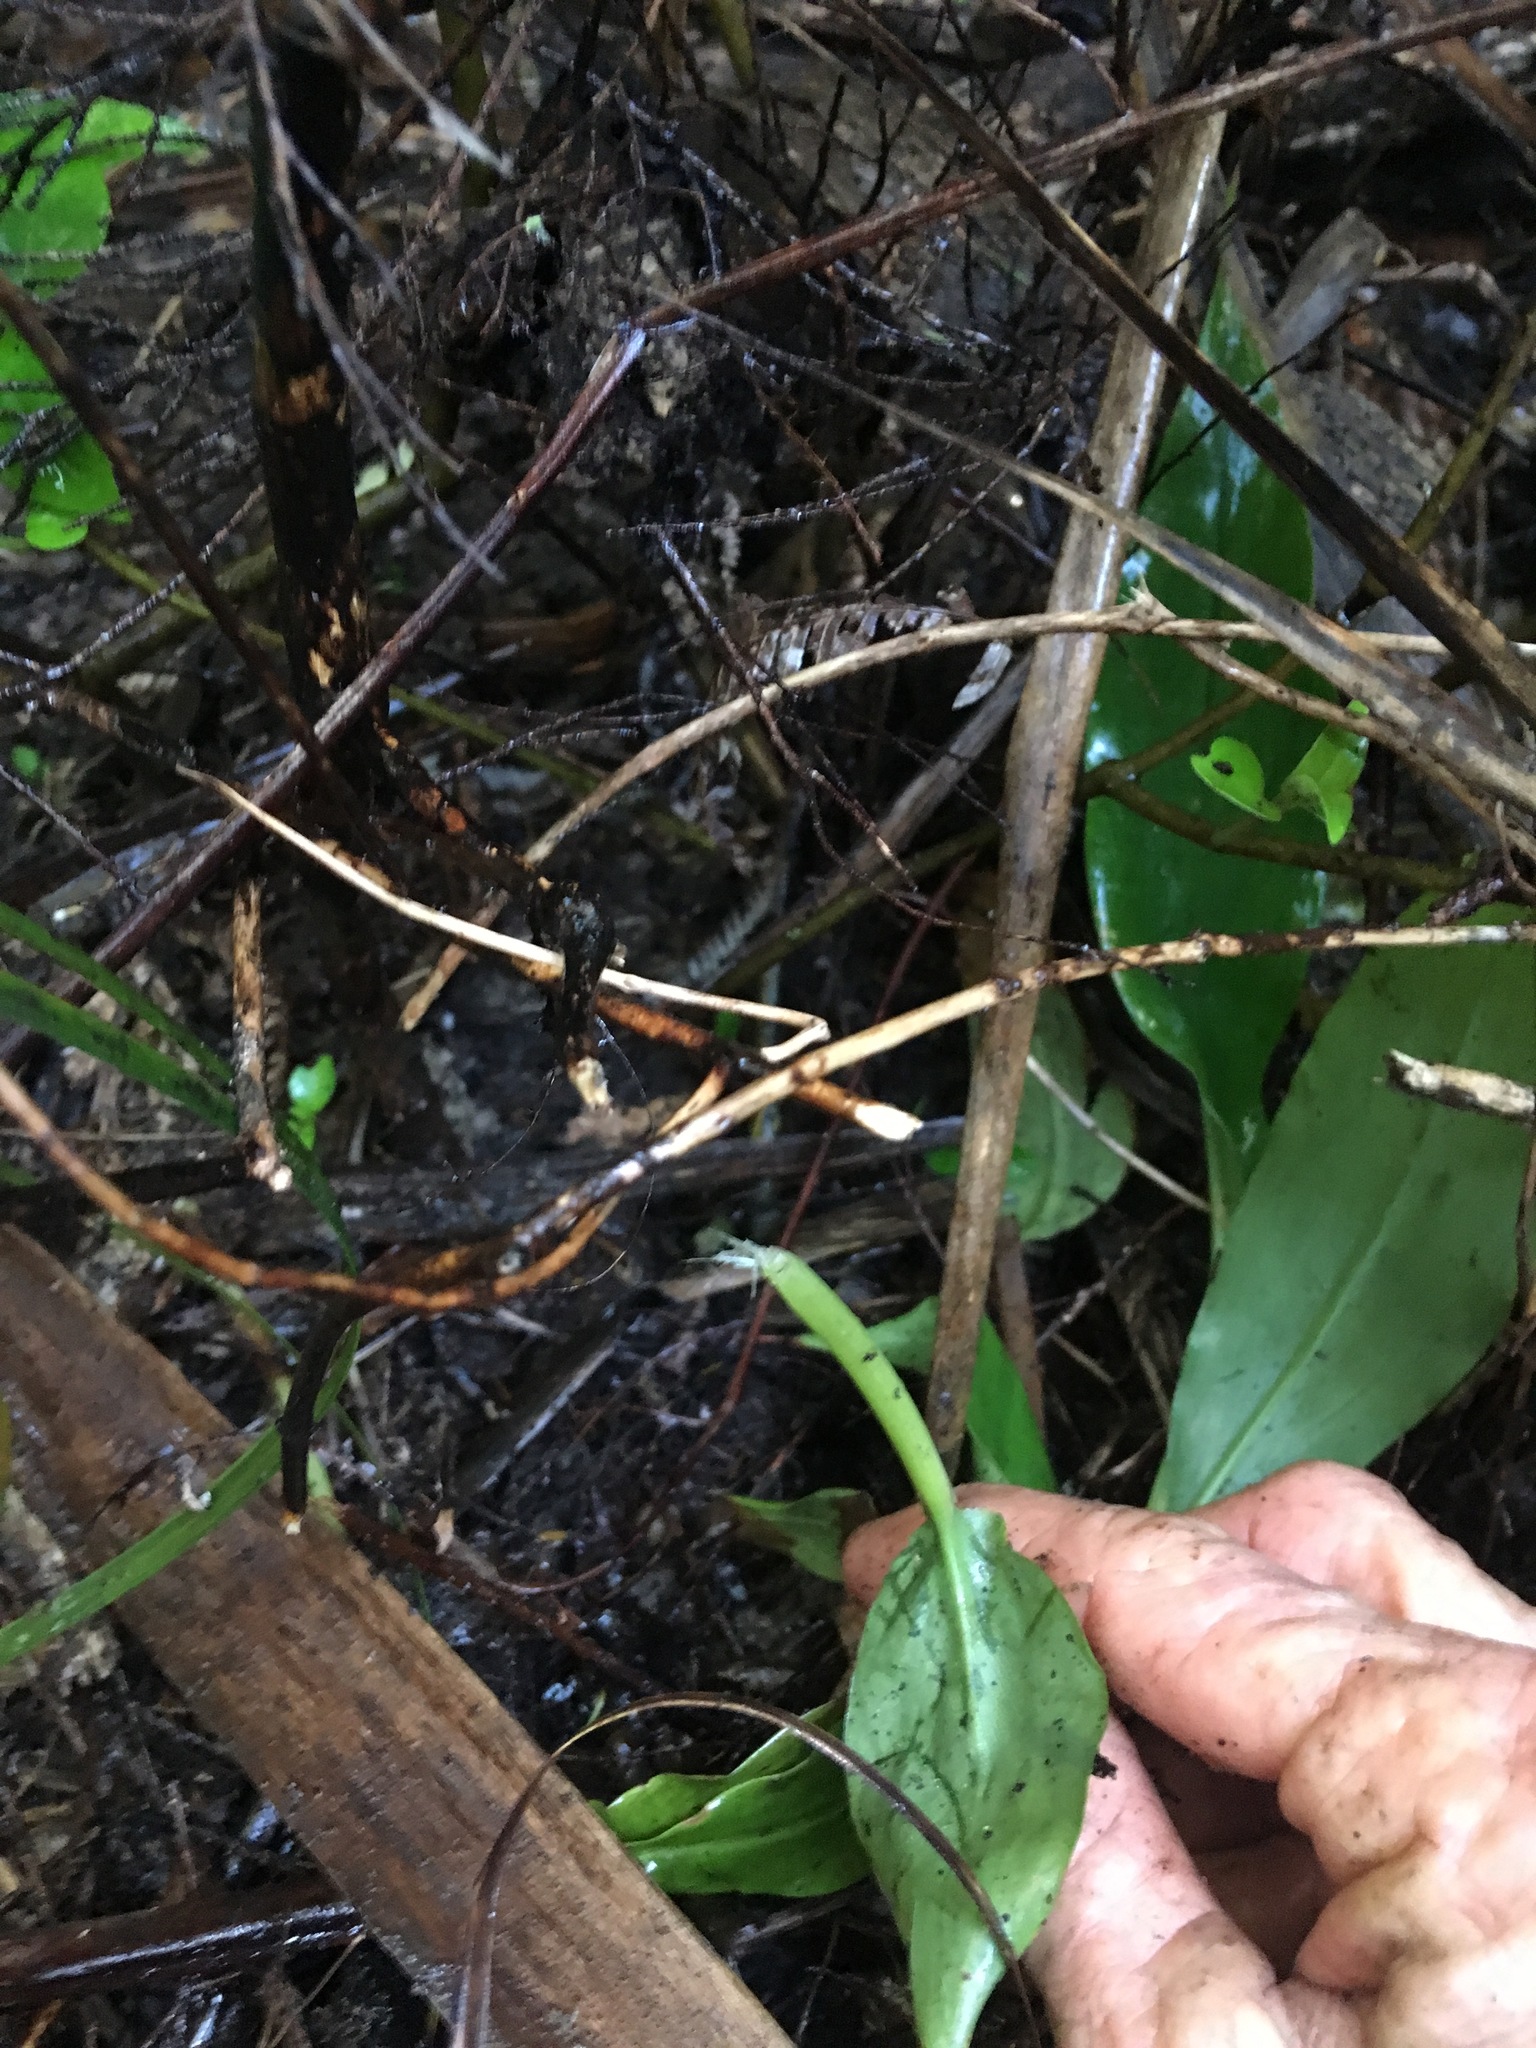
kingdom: Plantae
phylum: Tracheophyta
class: Liliopsida
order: Zingiberales
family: Zingiberaceae
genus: Hedychium
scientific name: Hedychium gardnerianum
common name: Himalayan ginger
